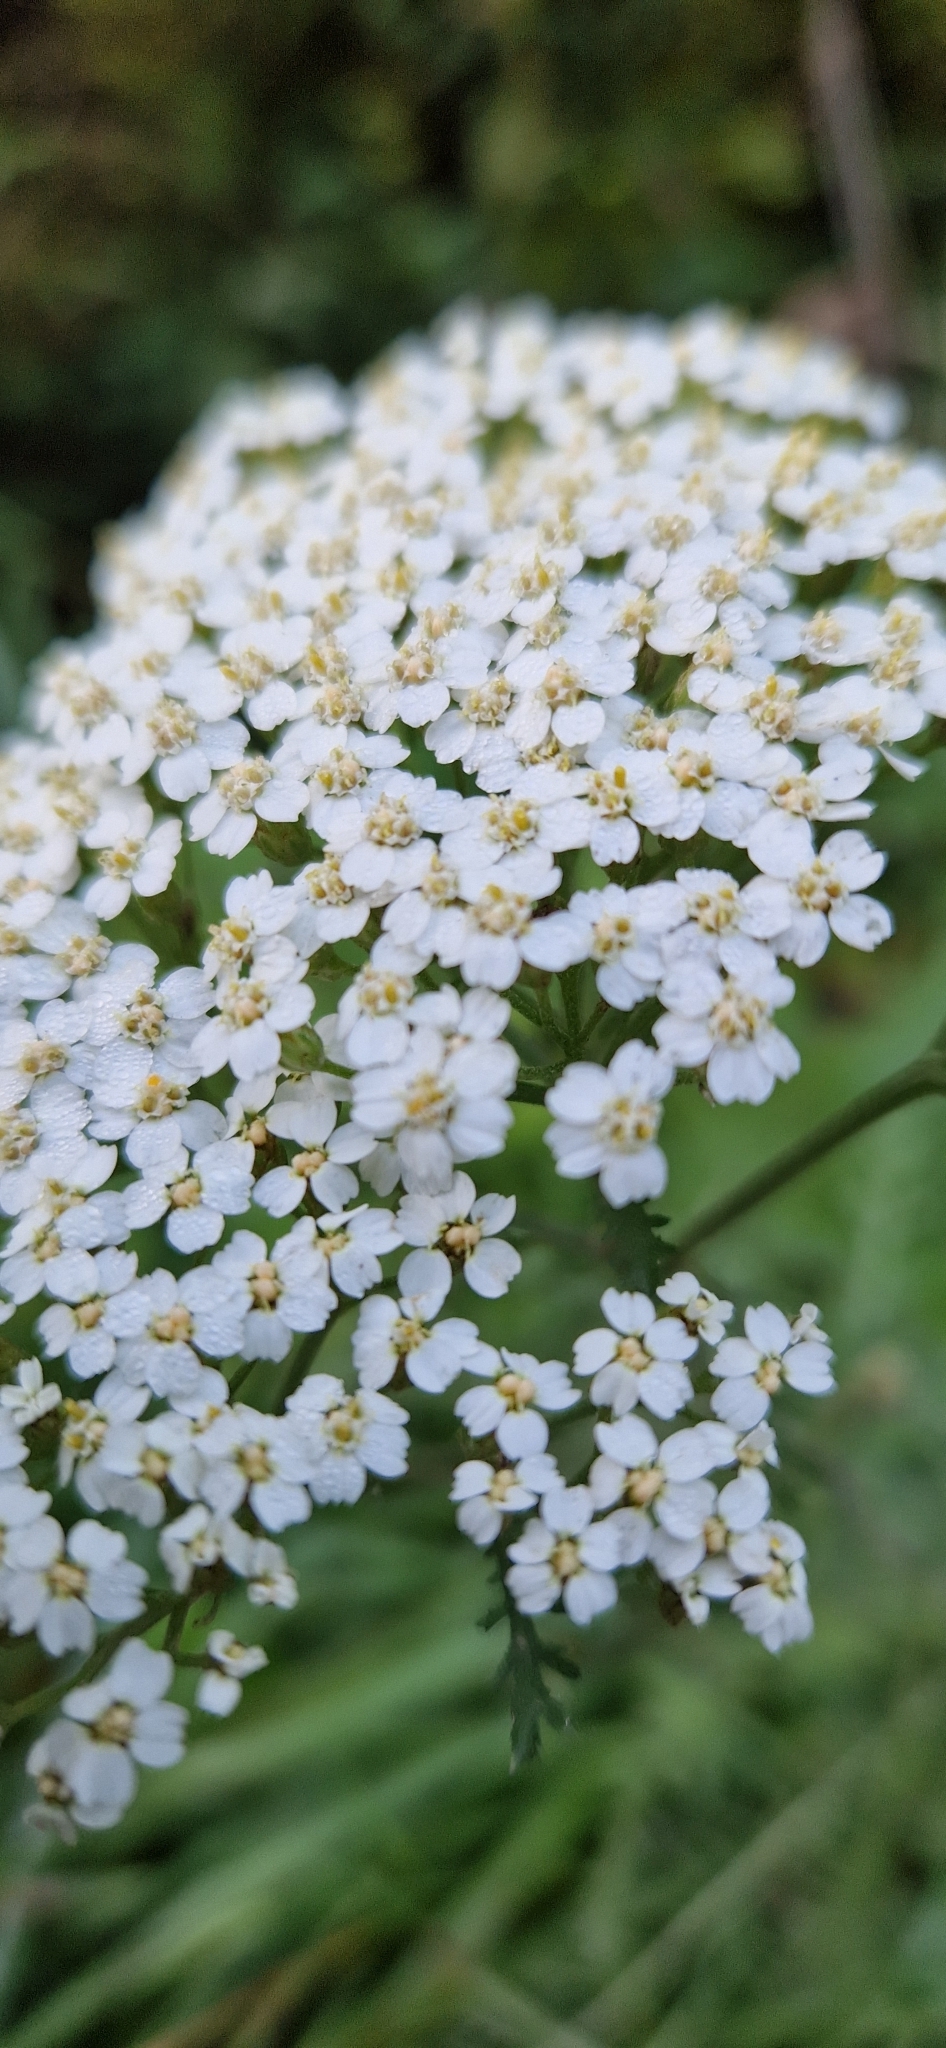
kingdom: Plantae
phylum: Tracheophyta
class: Magnoliopsida
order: Asterales
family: Asteraceae
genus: Achillea
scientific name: Achillea millefolium
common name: Yarrow
